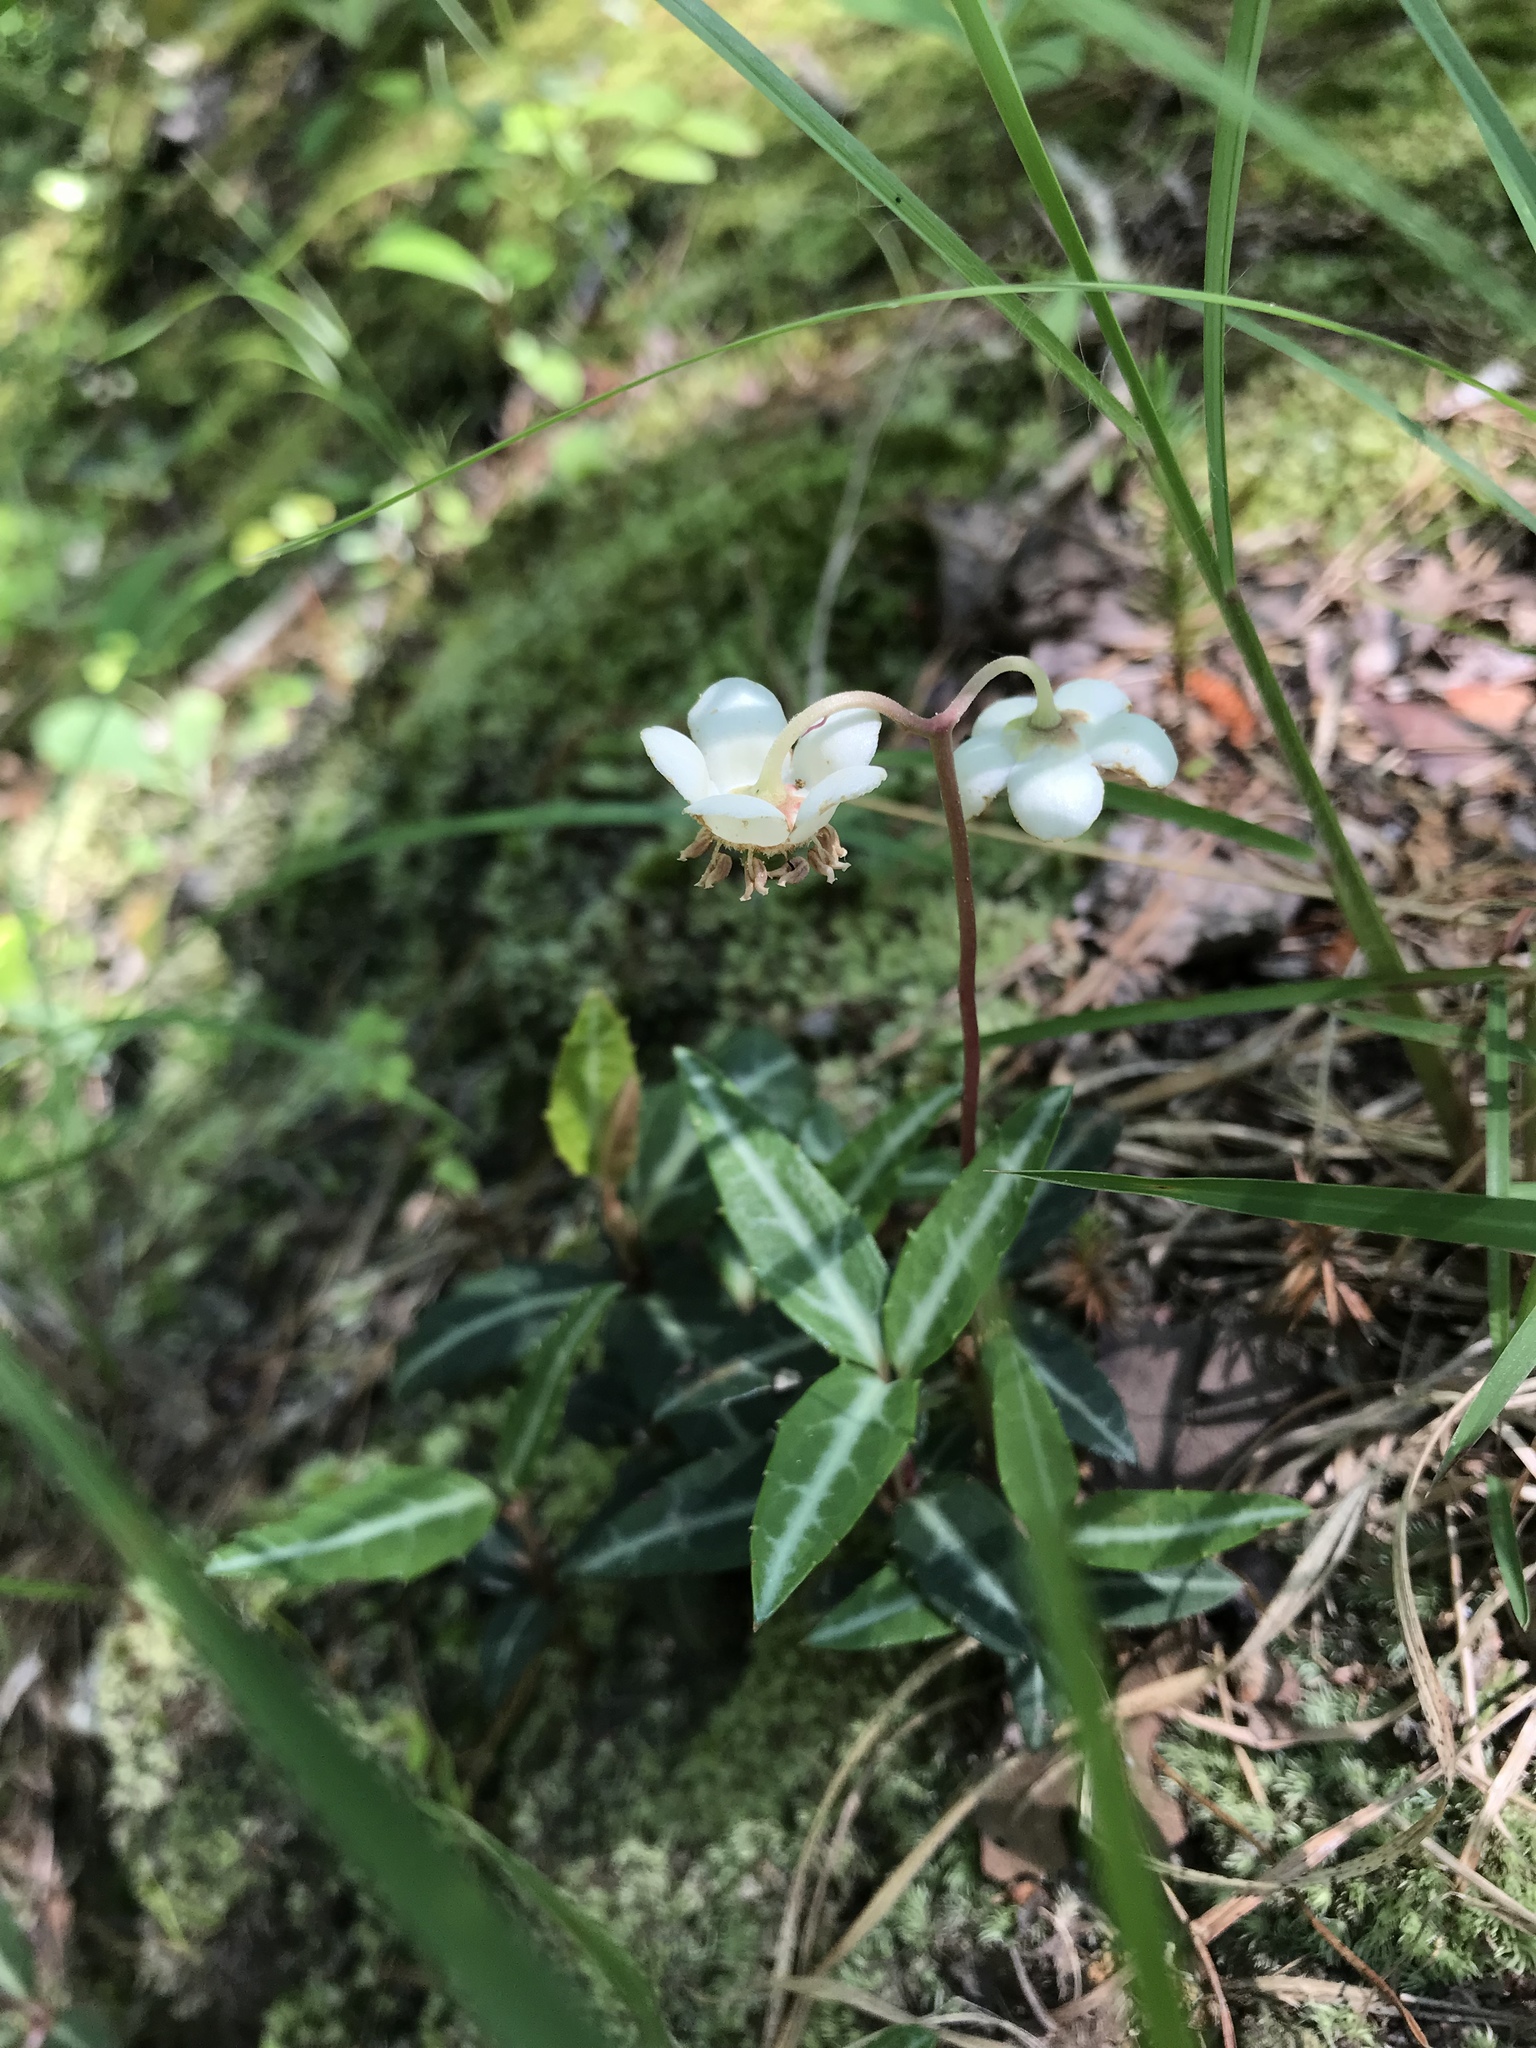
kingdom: Plantae
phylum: Tracheophyta
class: Magnoliopsida
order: Ericales
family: Ericaceae
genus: Chimaphila
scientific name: Chimaphila maculata
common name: Spotted pipsissewa
